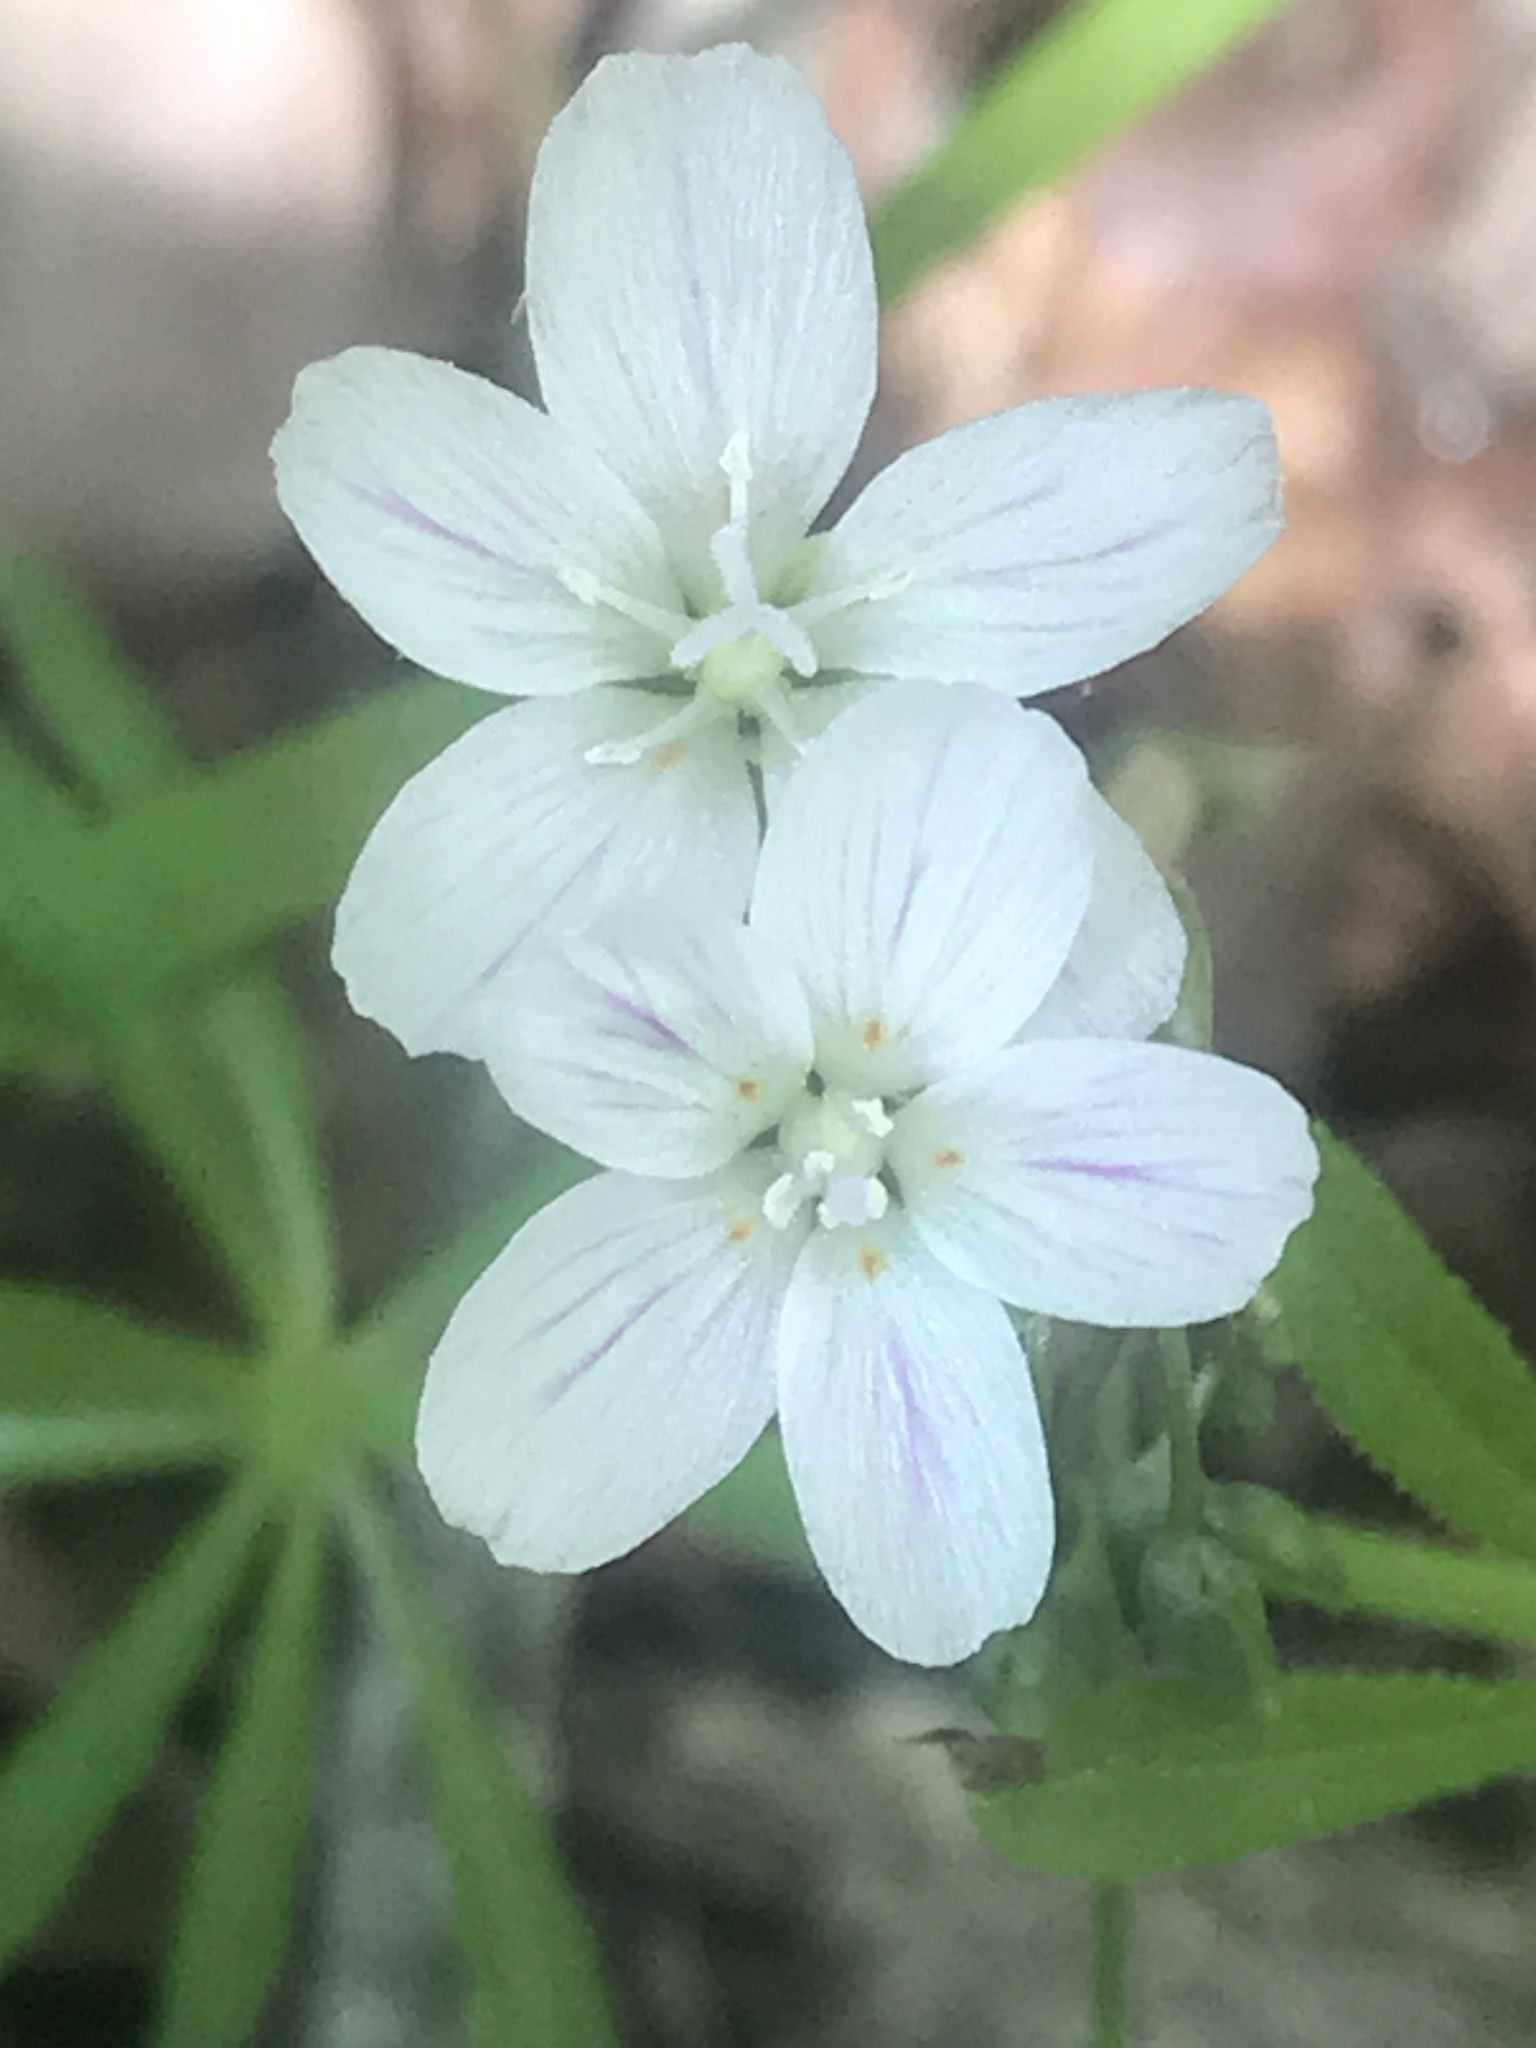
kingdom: Plantae
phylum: Tracheophyta
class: Magnoliopsida
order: Caryophyllales
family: Montiaceae
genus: Claytonia
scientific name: Claytonia virginica
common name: Virginia springbeauty
